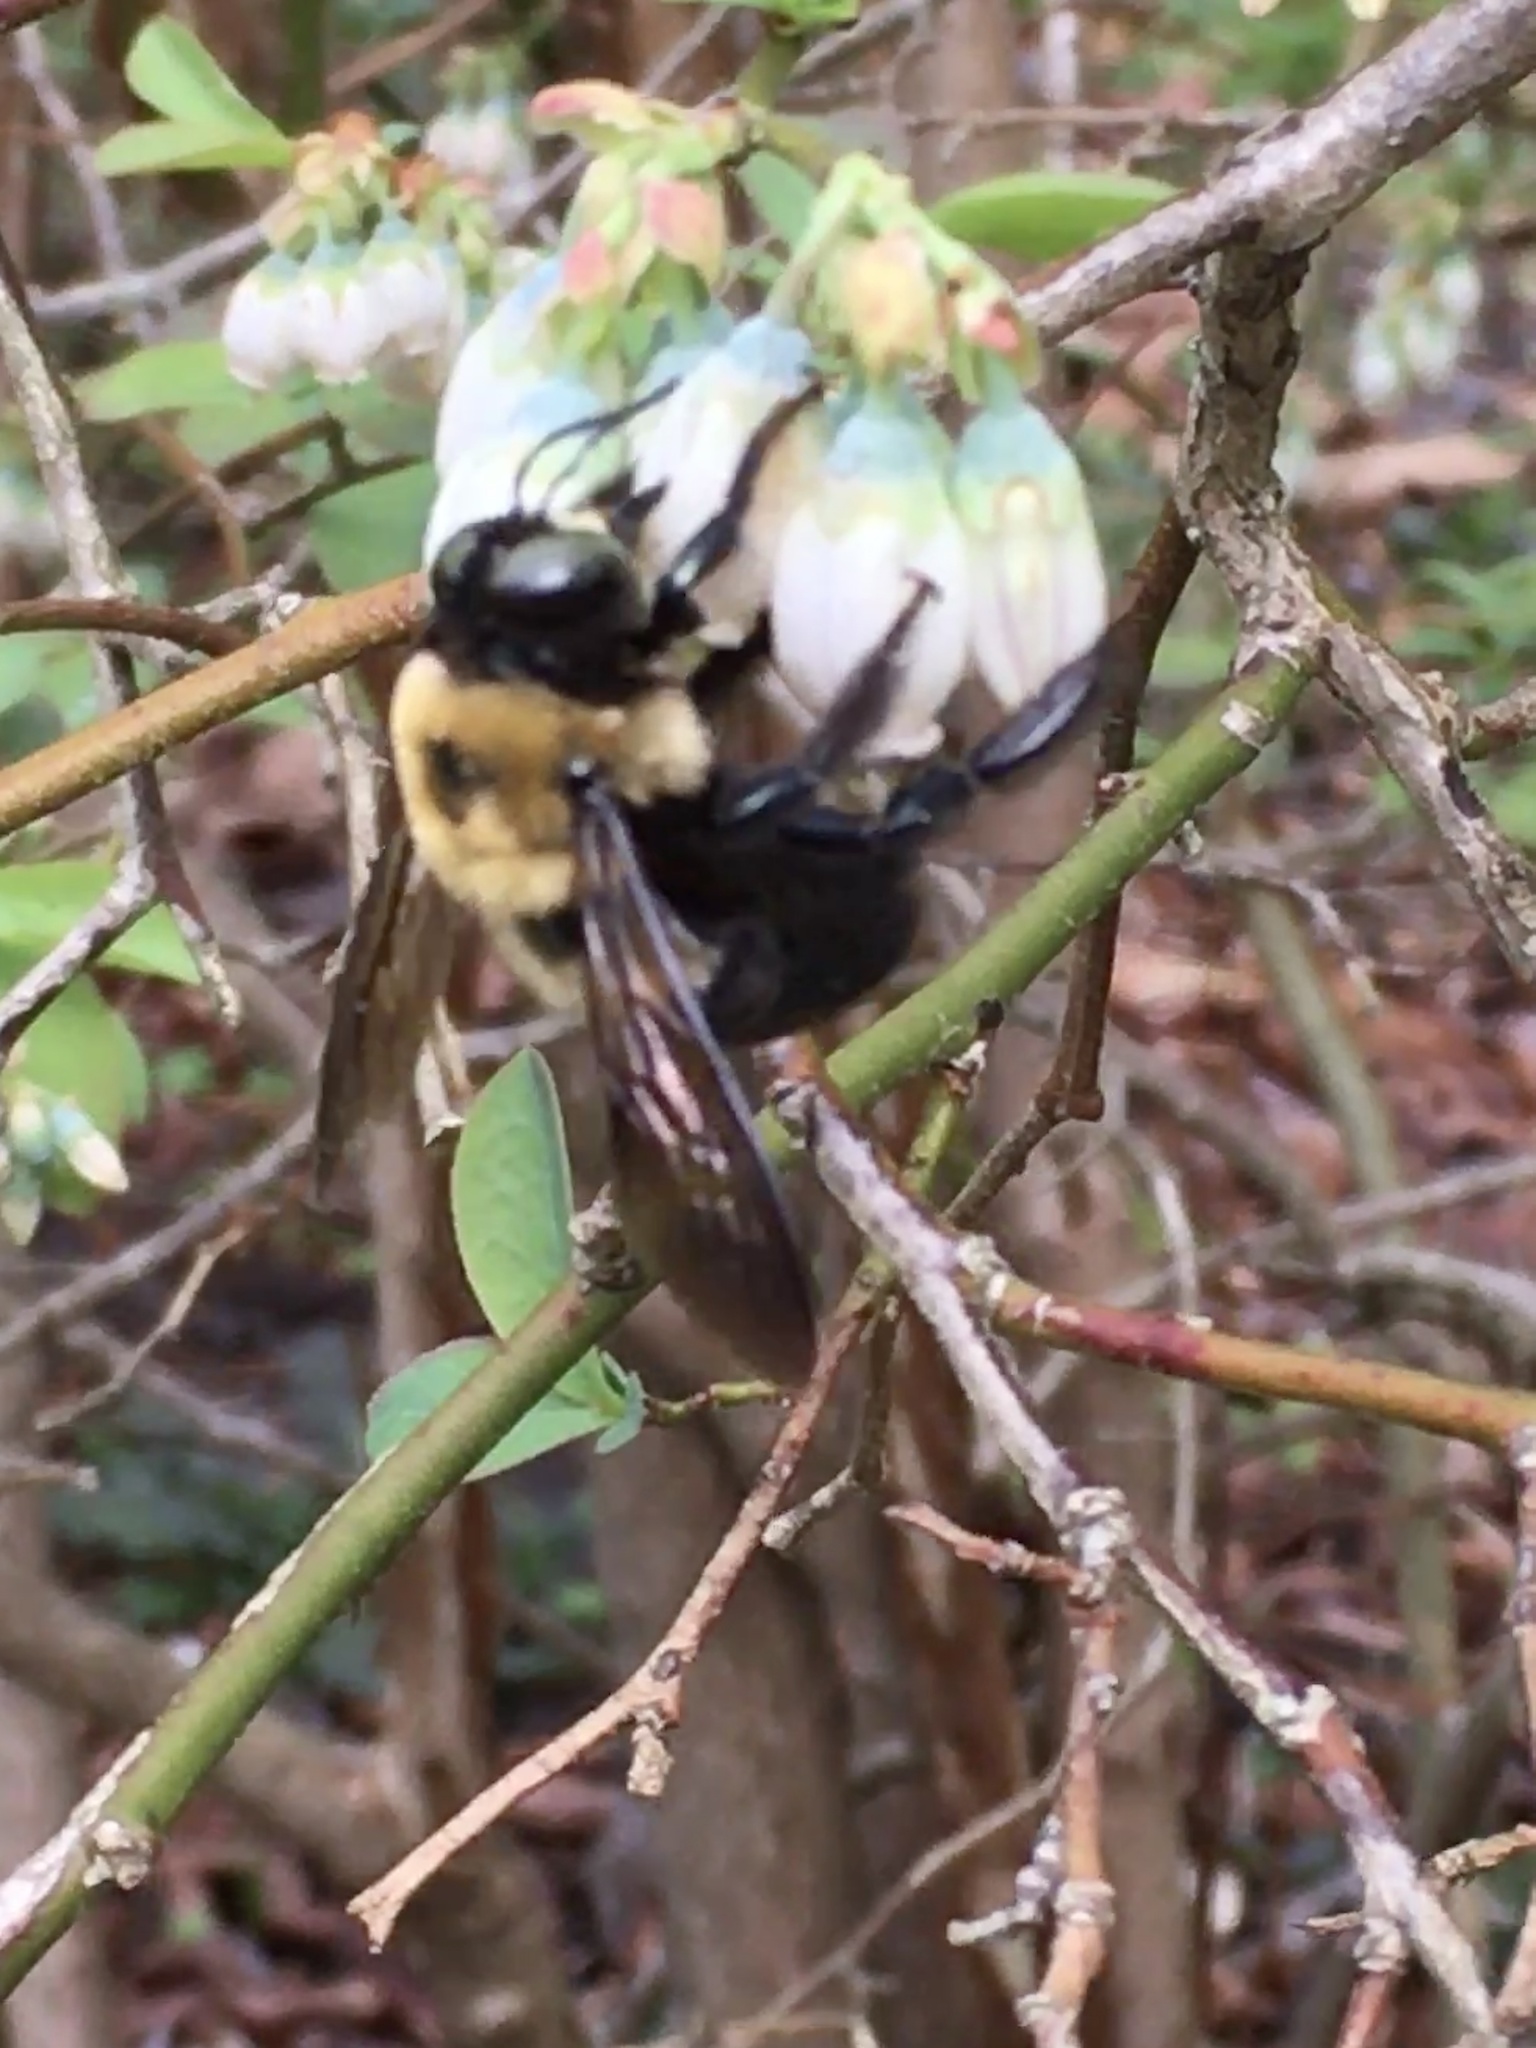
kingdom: Animalia
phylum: Arthropoda
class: Insecta
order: Hymenoptera
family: Apidae
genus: Xylocopa
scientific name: Xylocopa virginica
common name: Carpenter bee
